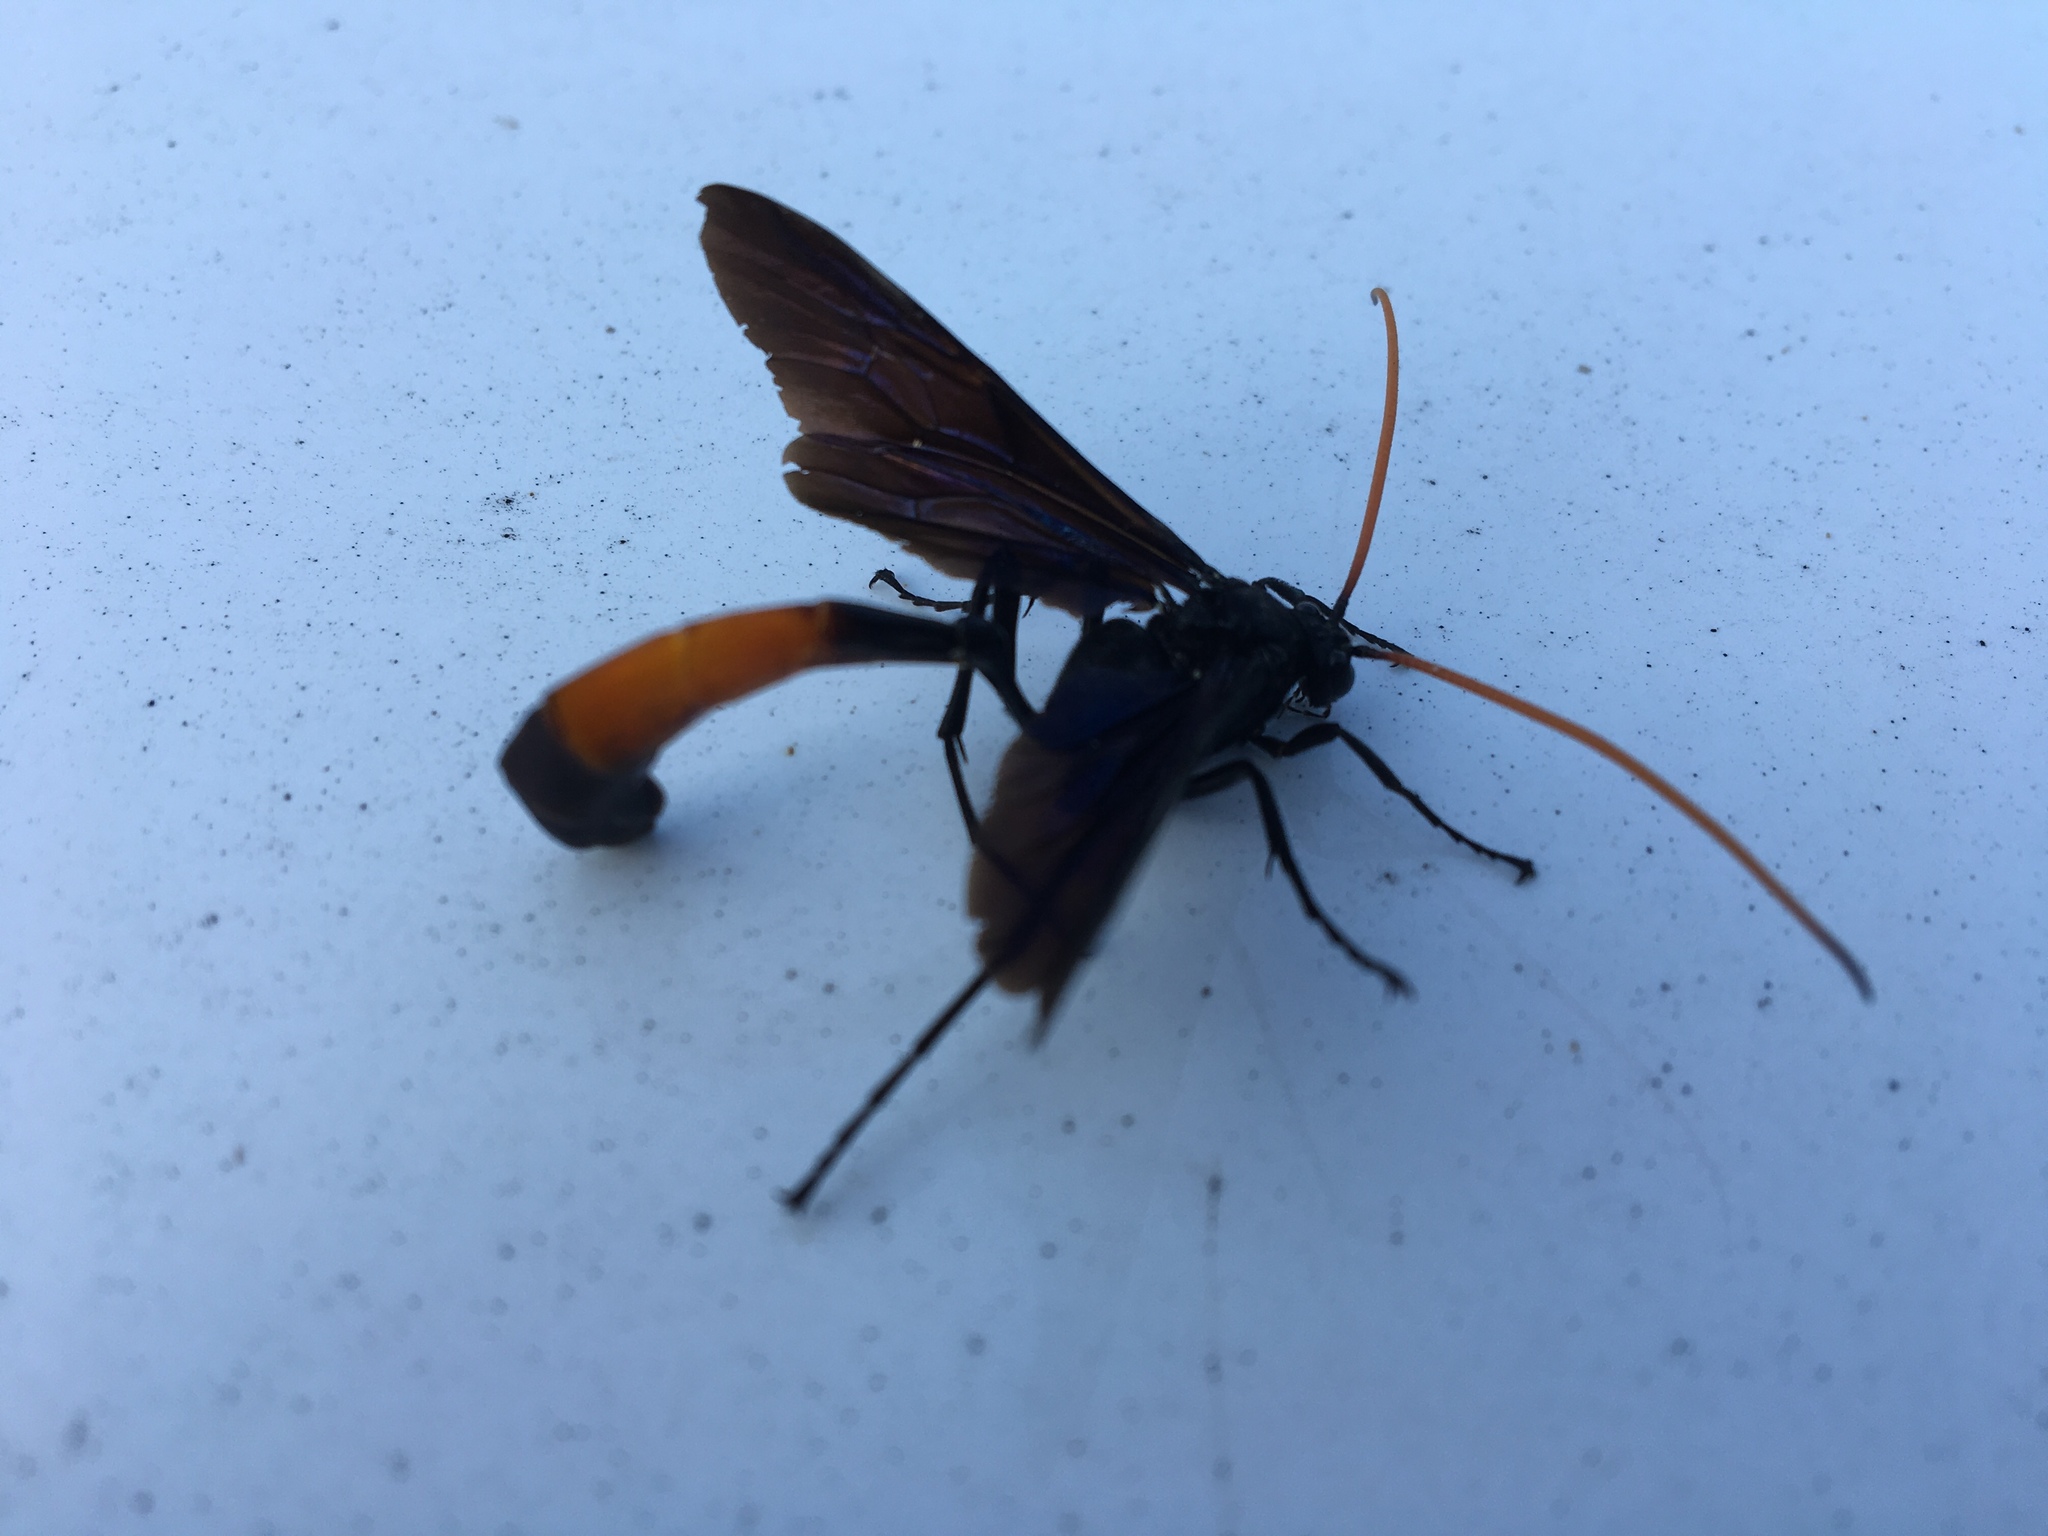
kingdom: Animalia
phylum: Arthropoda
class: Insecta
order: Hymenoptera
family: Ichneumonidae
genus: Thyreodon
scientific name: Thyreodon fernaldi
